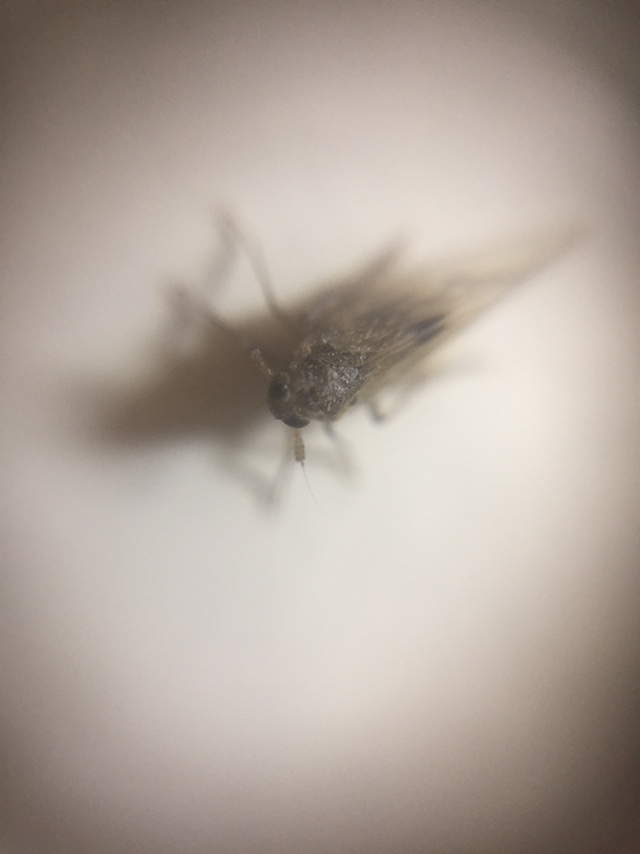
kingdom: Animalia
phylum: Arthropoda
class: Insecta
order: Hemiptera
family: Delphacidae
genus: Nilaparvata
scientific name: Nilaparvata lugens
